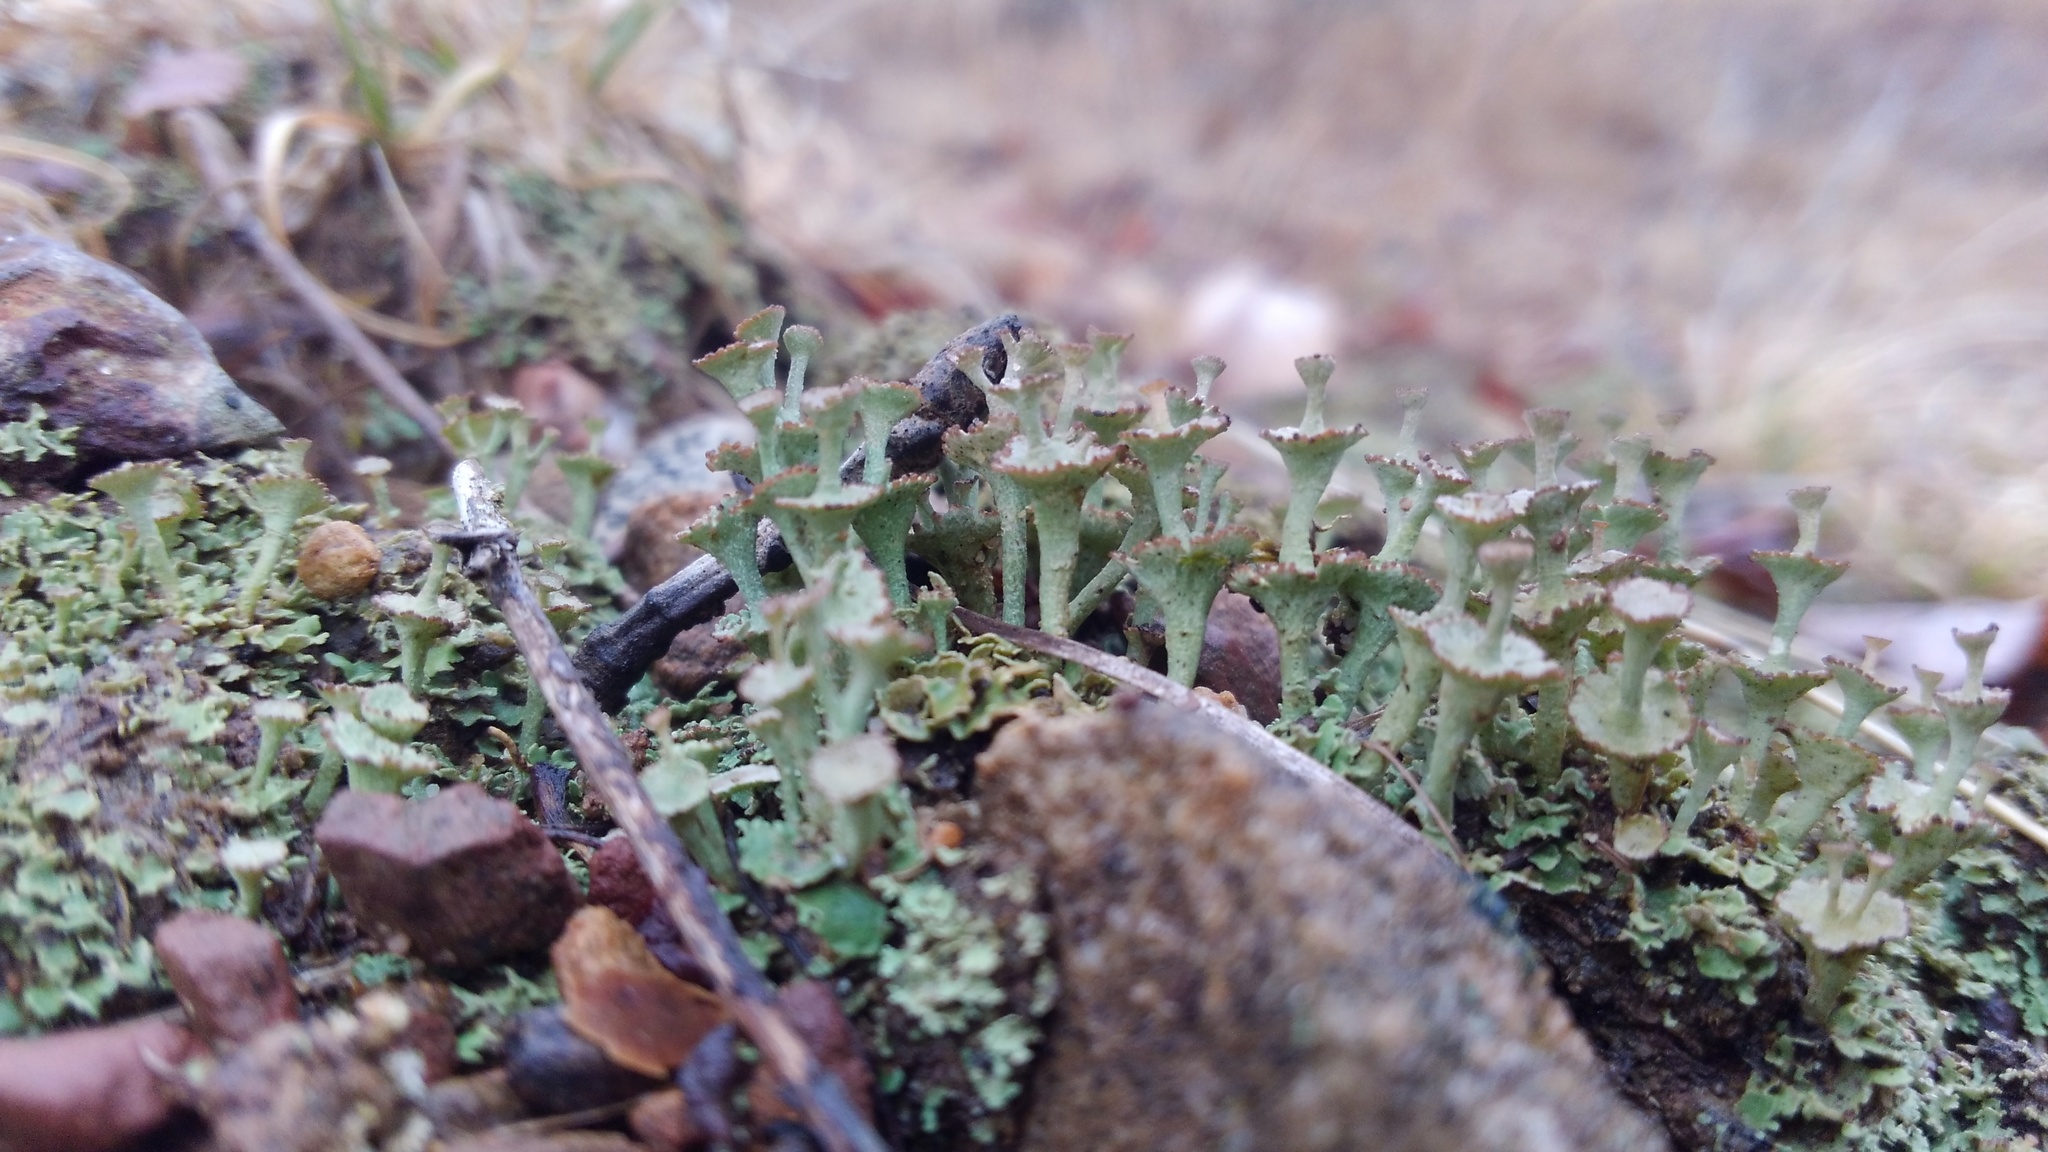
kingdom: Fungi
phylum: Ascomycota
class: Lecanoromycetes
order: Lecanorales
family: Cladoniaceae
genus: Cladonia
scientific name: Cladonia cervicornis
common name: Browned pixie-cup lichen
